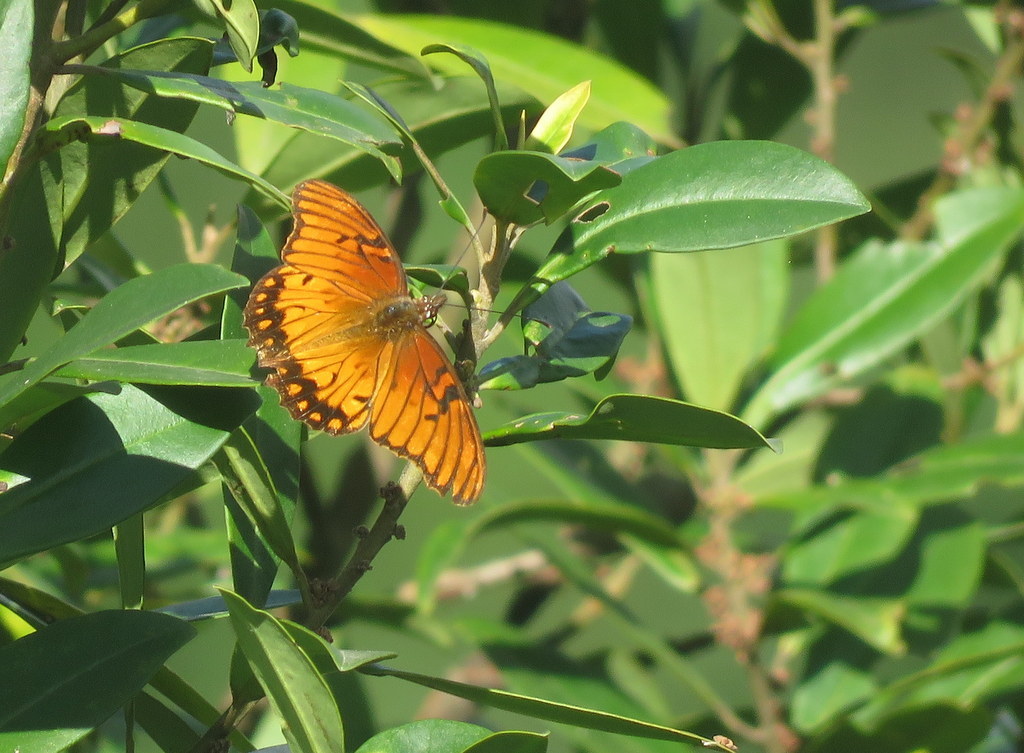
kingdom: Animalia
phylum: Arthropoda
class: Insecta
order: Lepidoptera
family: Nymphalidae
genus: Dione
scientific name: Dione moneta
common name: Mexican silverspot
